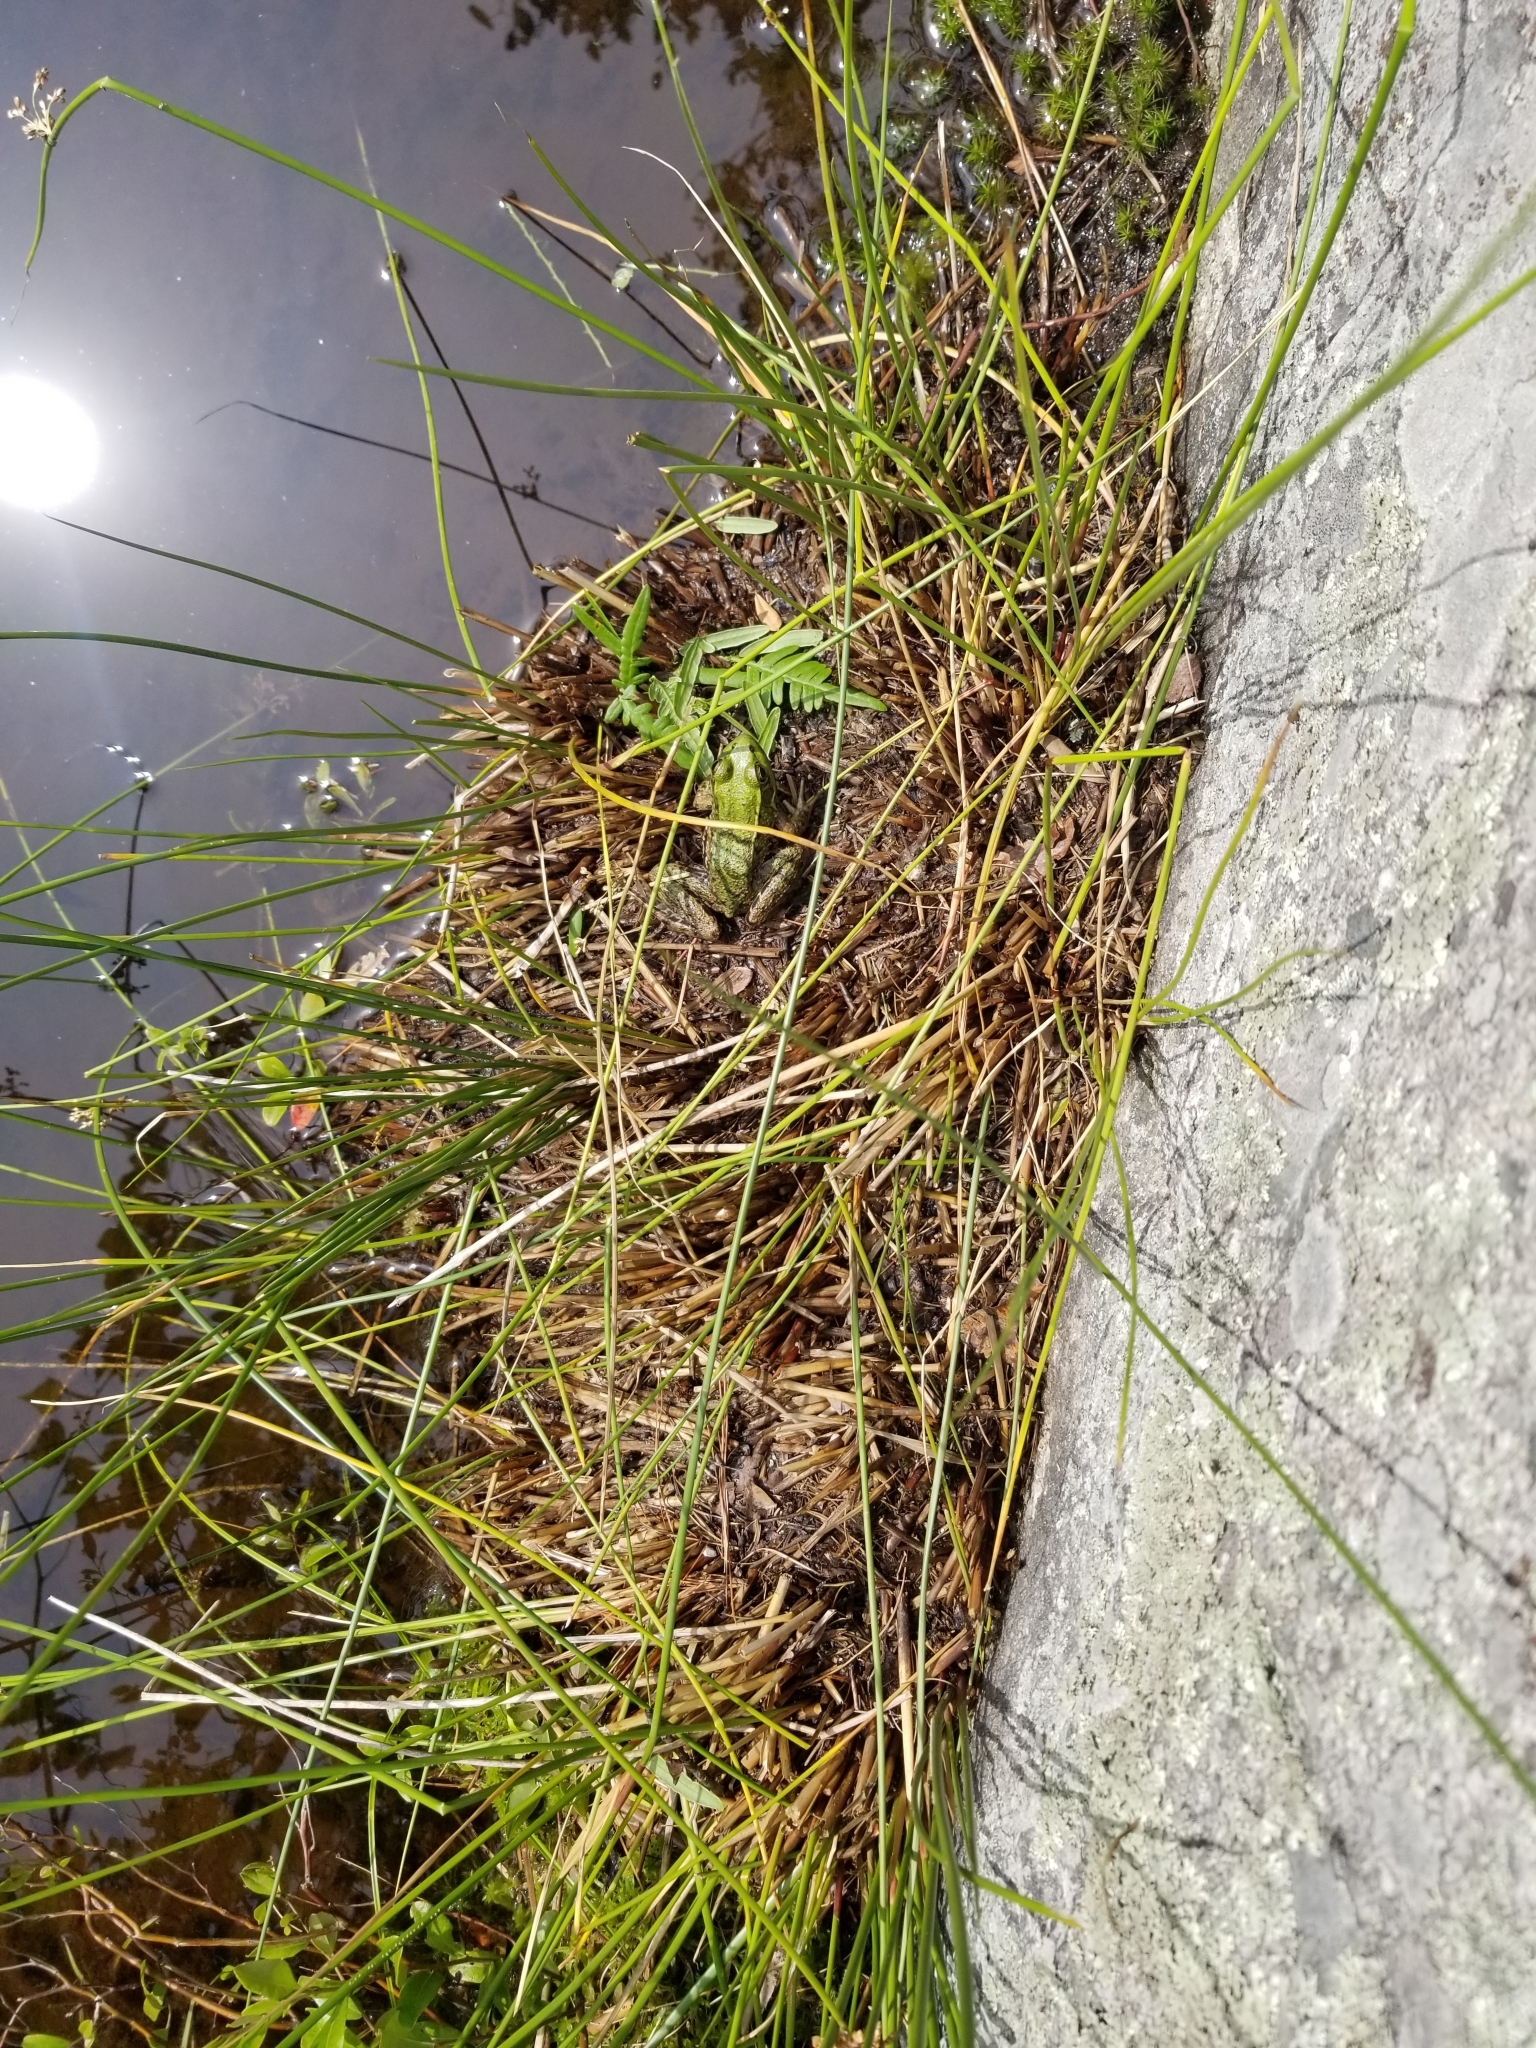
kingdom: Animalia
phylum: Chordata
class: Amphibia
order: Anura
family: Ranidae
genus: Lithobates
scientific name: Lithobates clamitans
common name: Green frog
